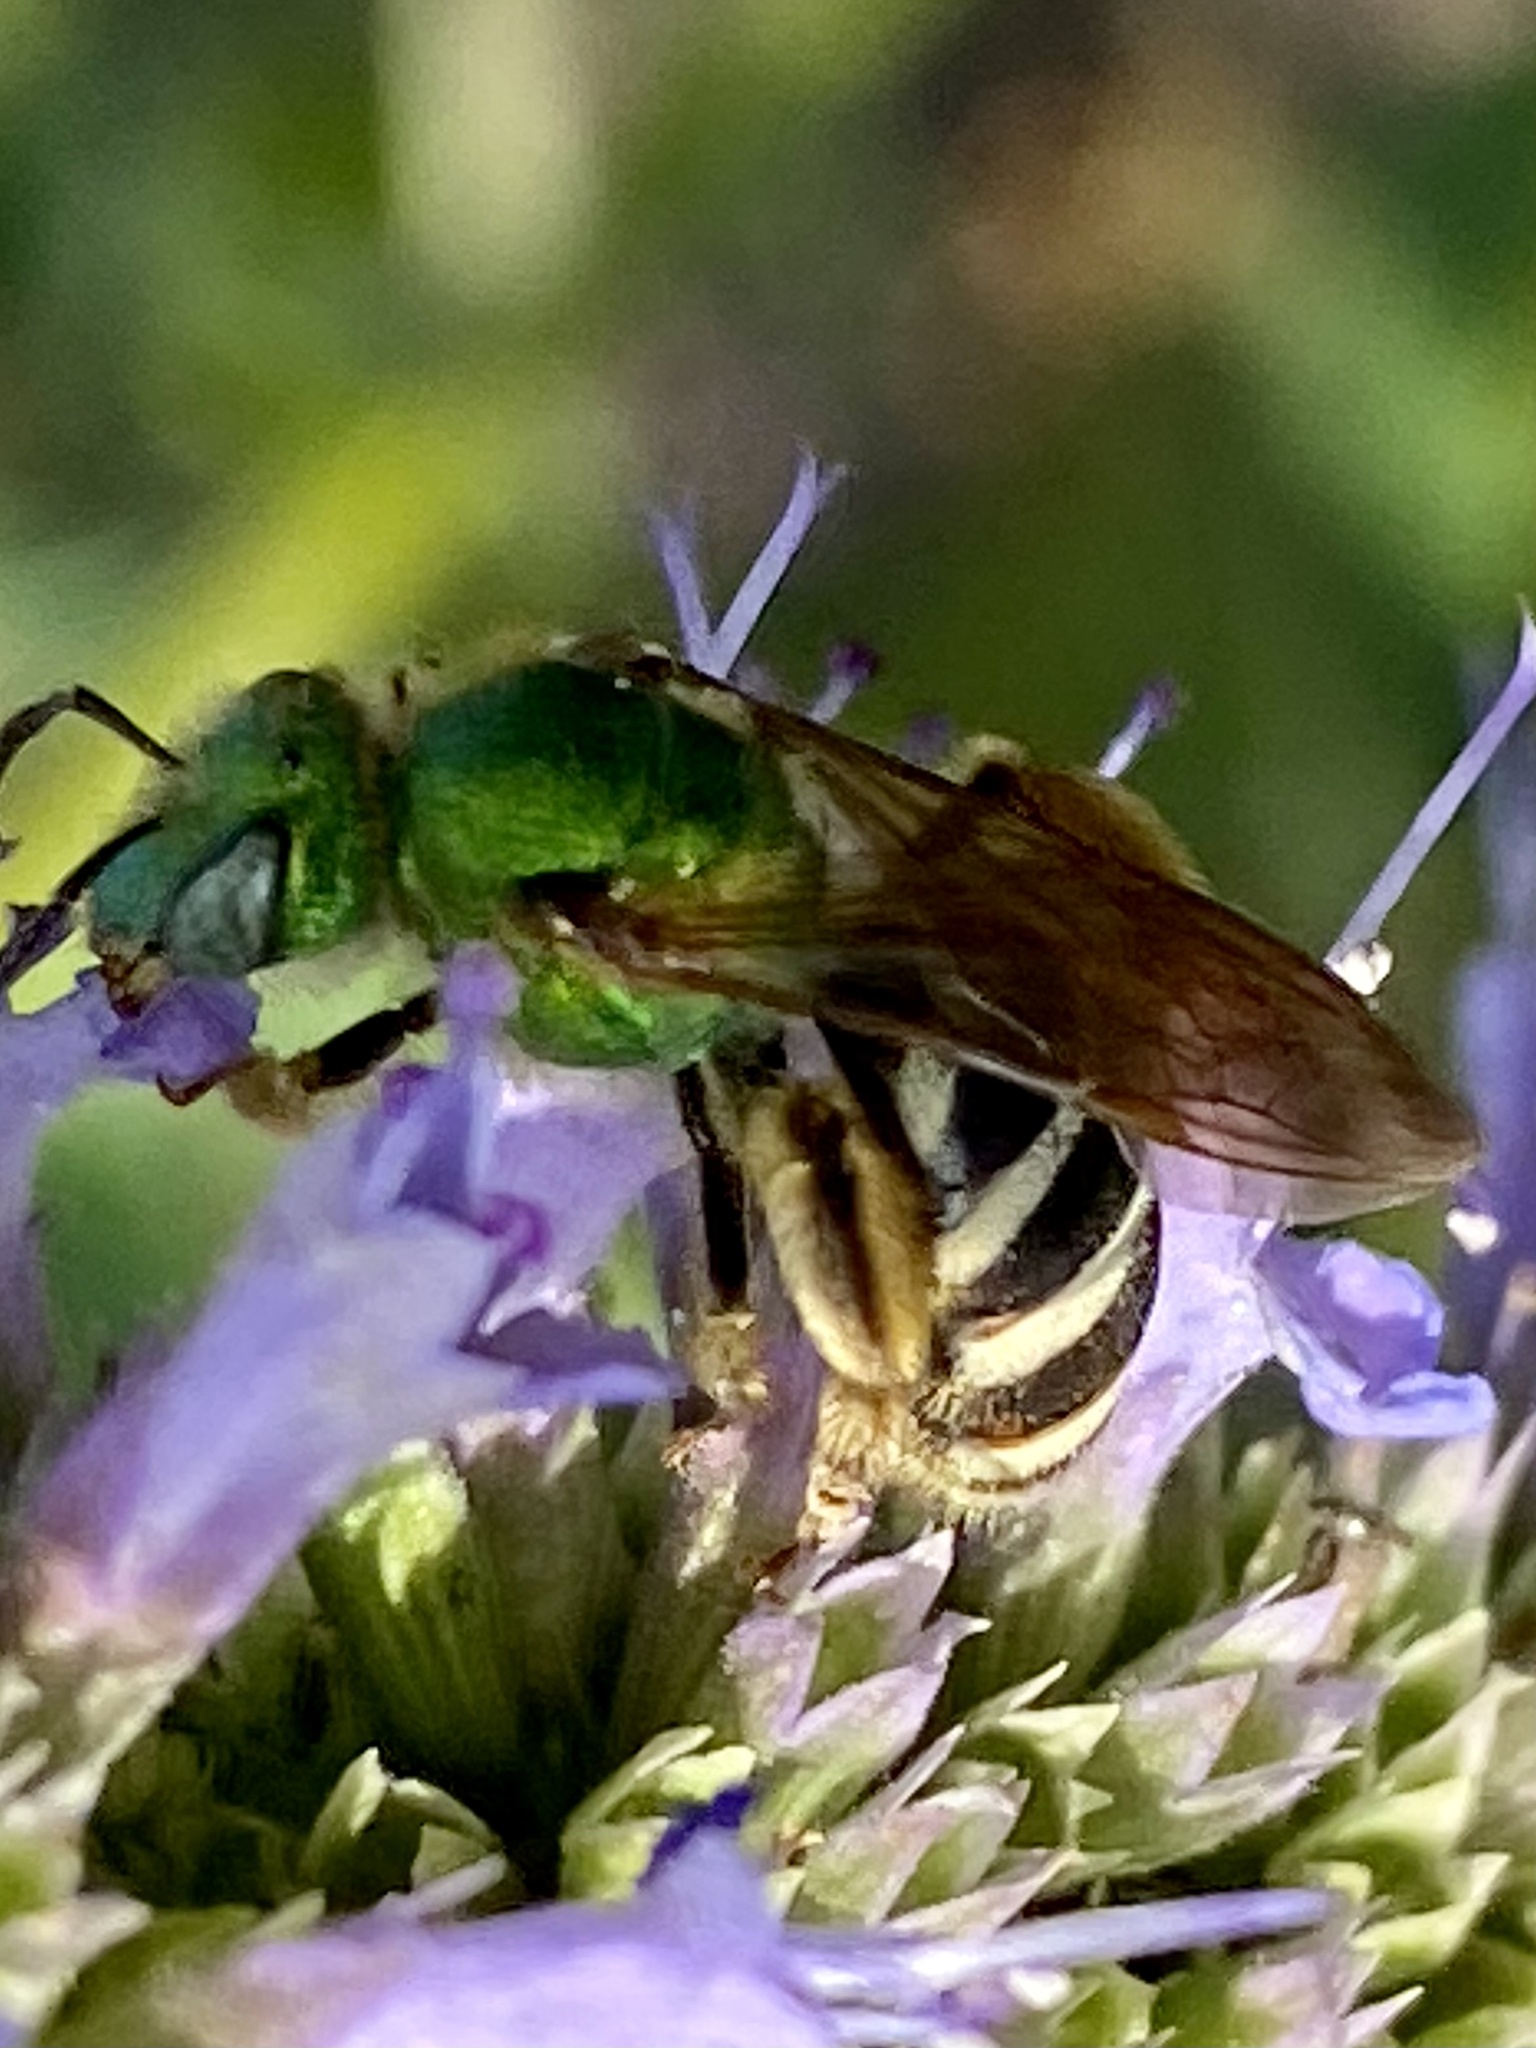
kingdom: Animalia
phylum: Arthropoda
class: Insecta
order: Hymenoptera
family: Halictidae
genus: Agapostemon
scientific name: Agapostemon virescens
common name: Bicolored striped sweat bee
